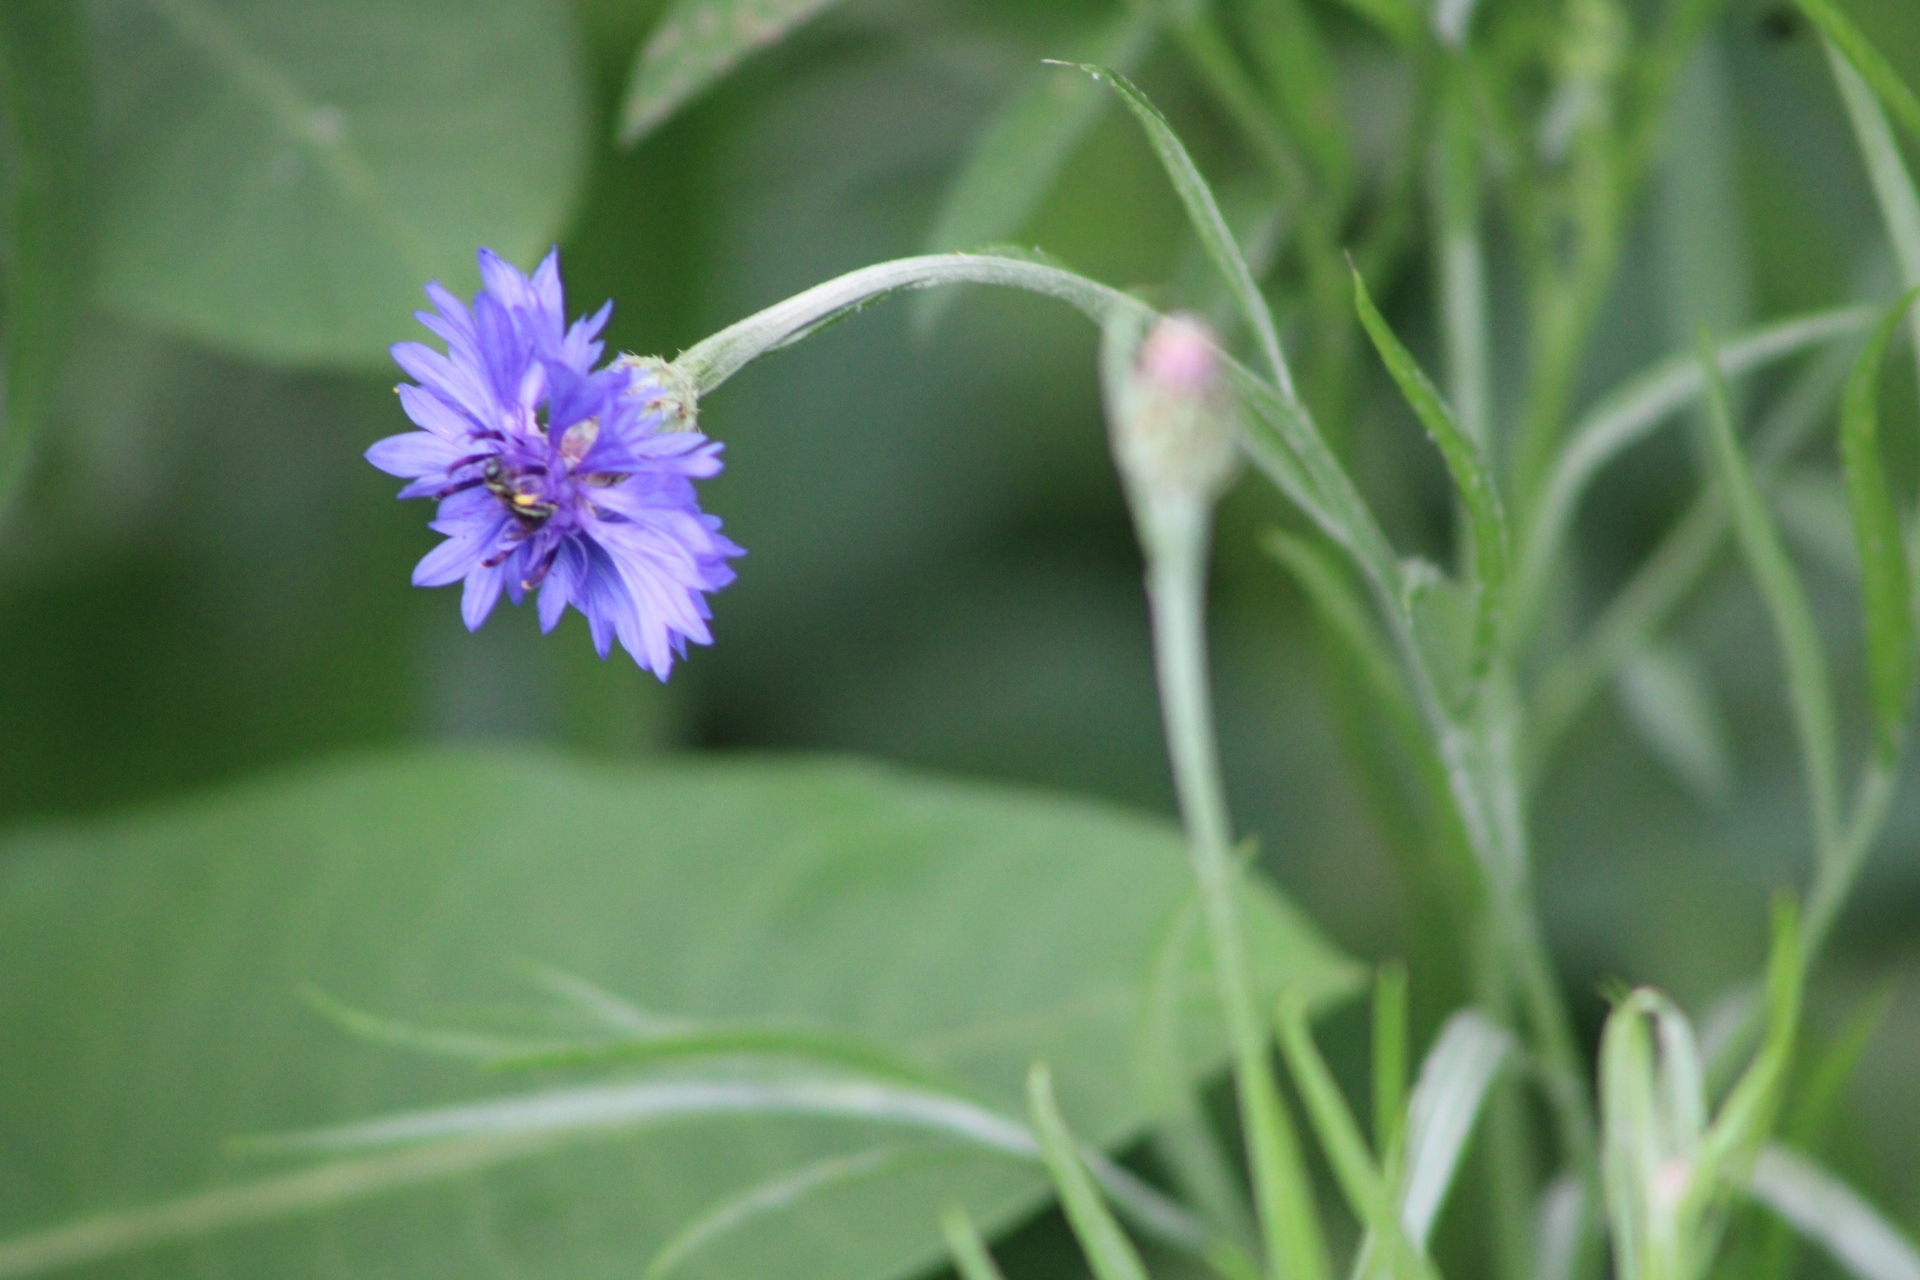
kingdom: Plantae
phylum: Tracheophyta
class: Magnoliopsida
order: Asterales
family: Asteraceae
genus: Centaurea
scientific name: Centaurea cyanus
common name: Cornflower
